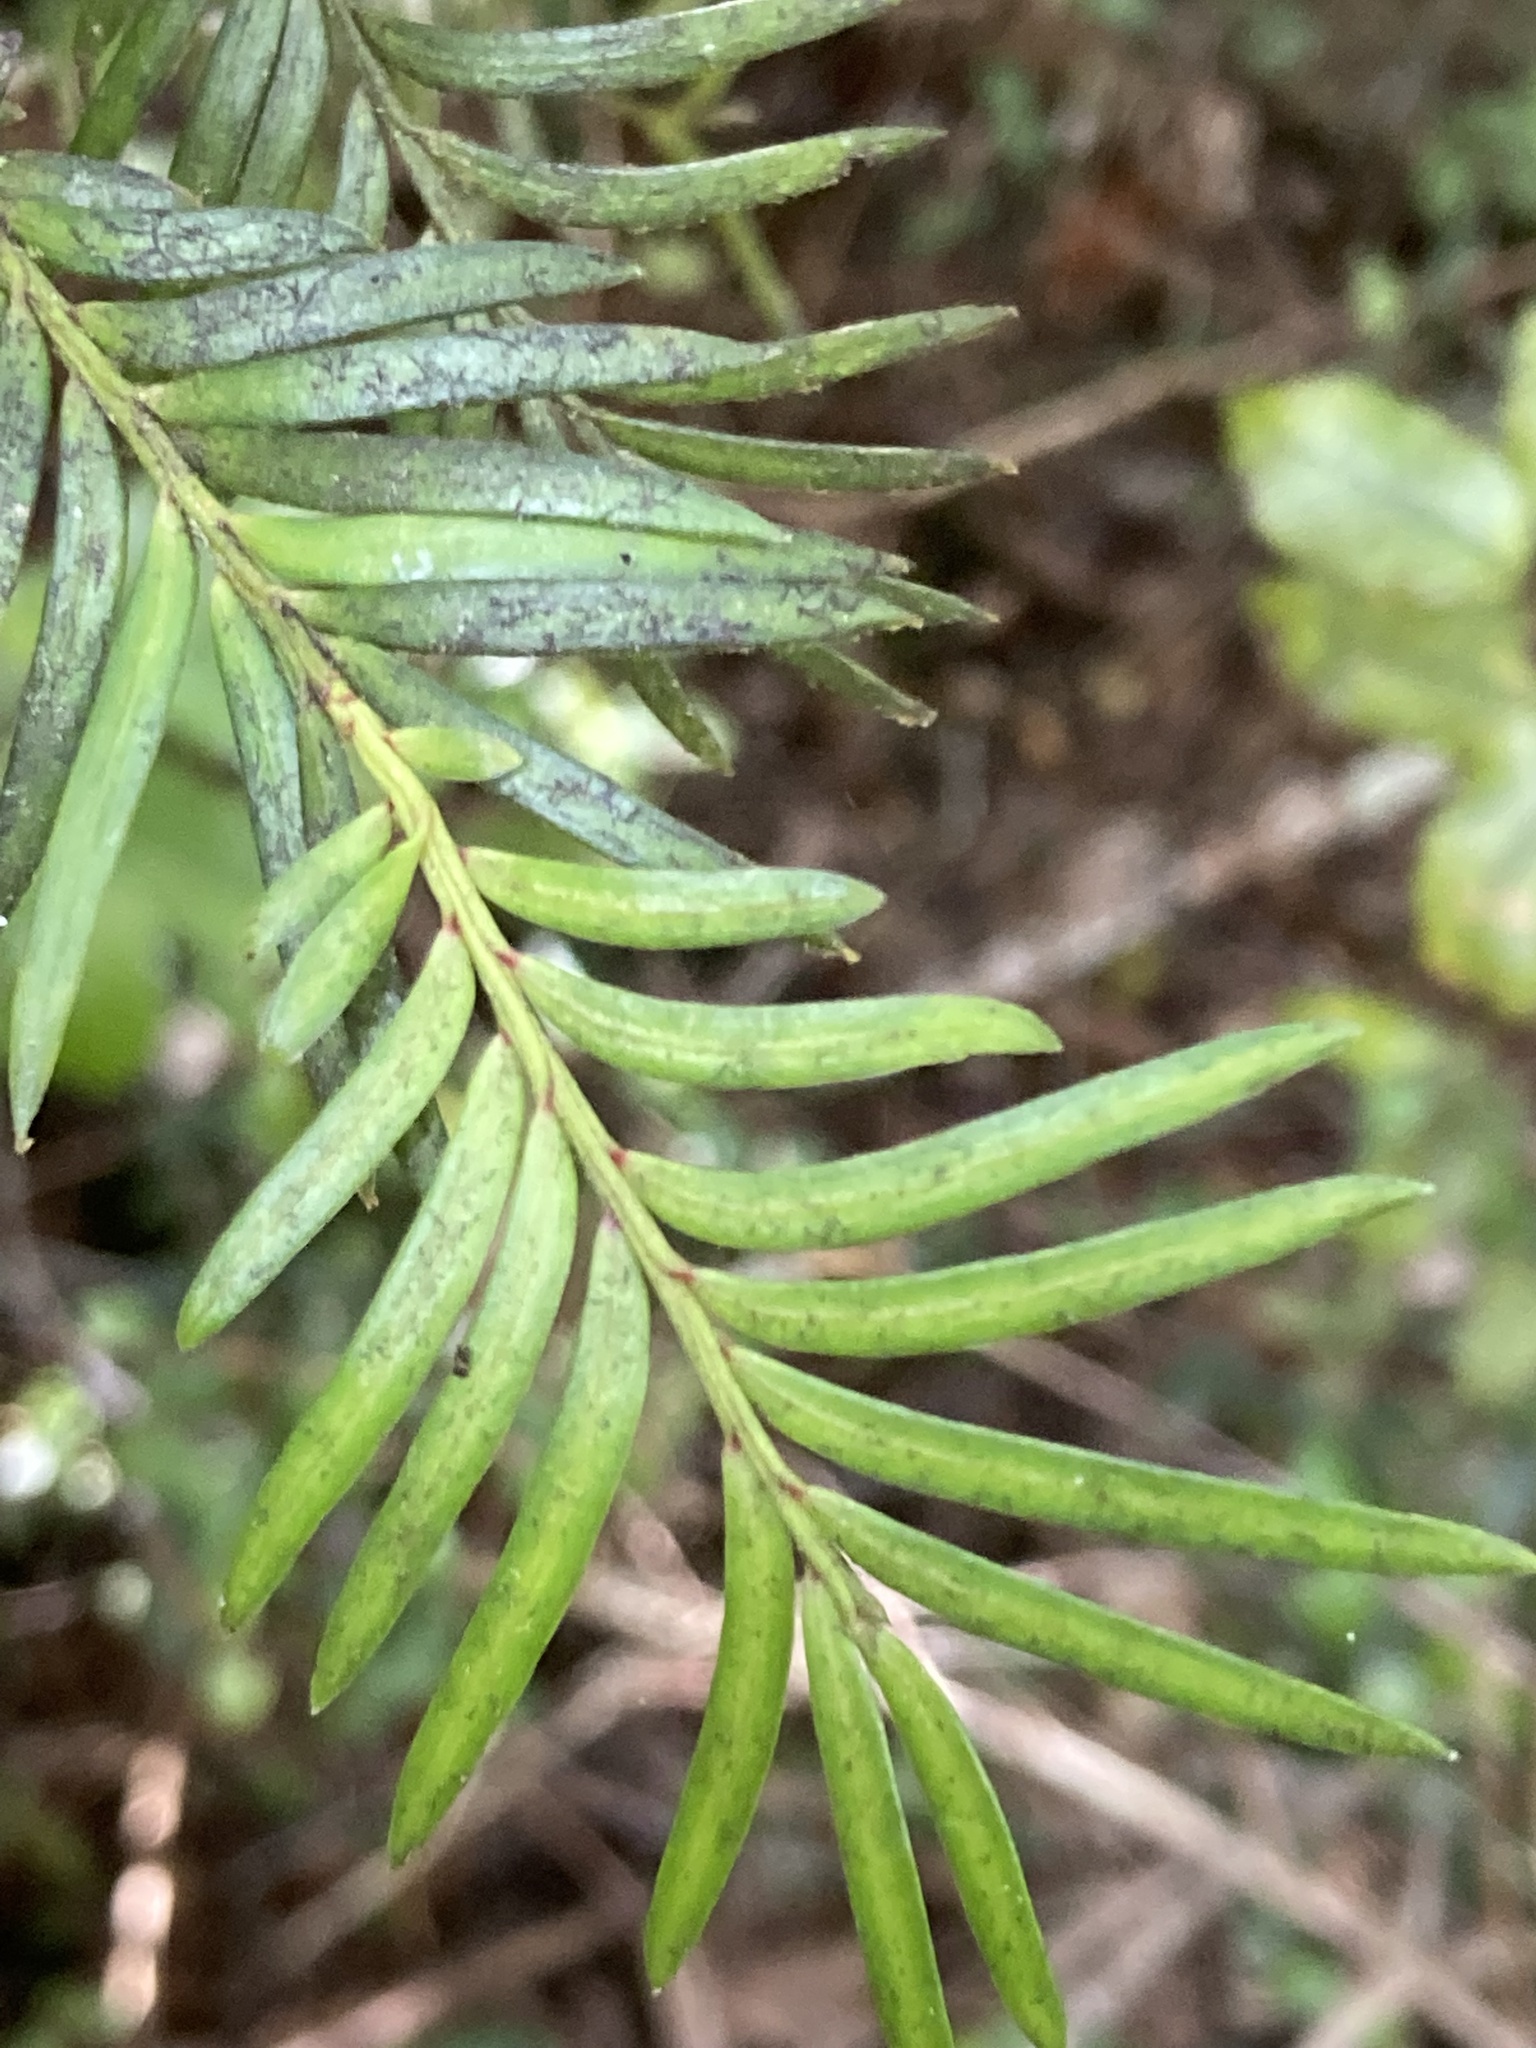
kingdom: Plantae
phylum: Tracheophyta
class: Pinopsida
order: Pinales
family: Podocarpaceae
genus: Prumnopitys
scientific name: Prumnopitys ferruginea
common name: Brown pine
